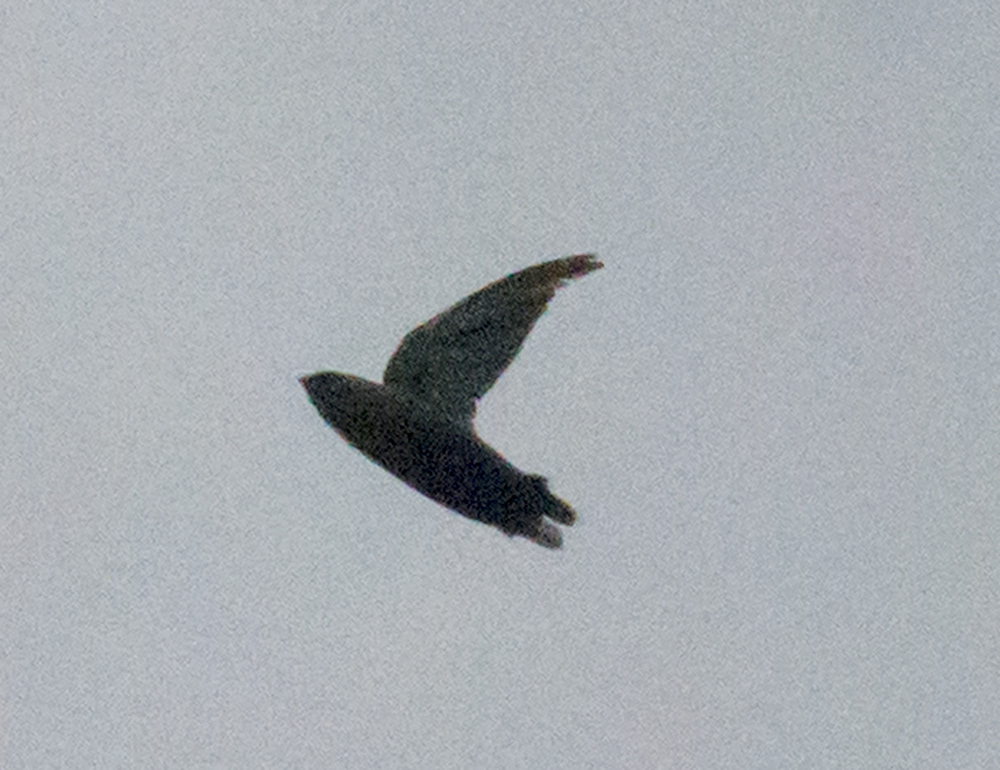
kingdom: Animalia
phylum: Chordata
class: Aves
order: Apodiformes
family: Apodidae
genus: Chaetura
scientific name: Chaetura pelagica
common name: Chimney swift
